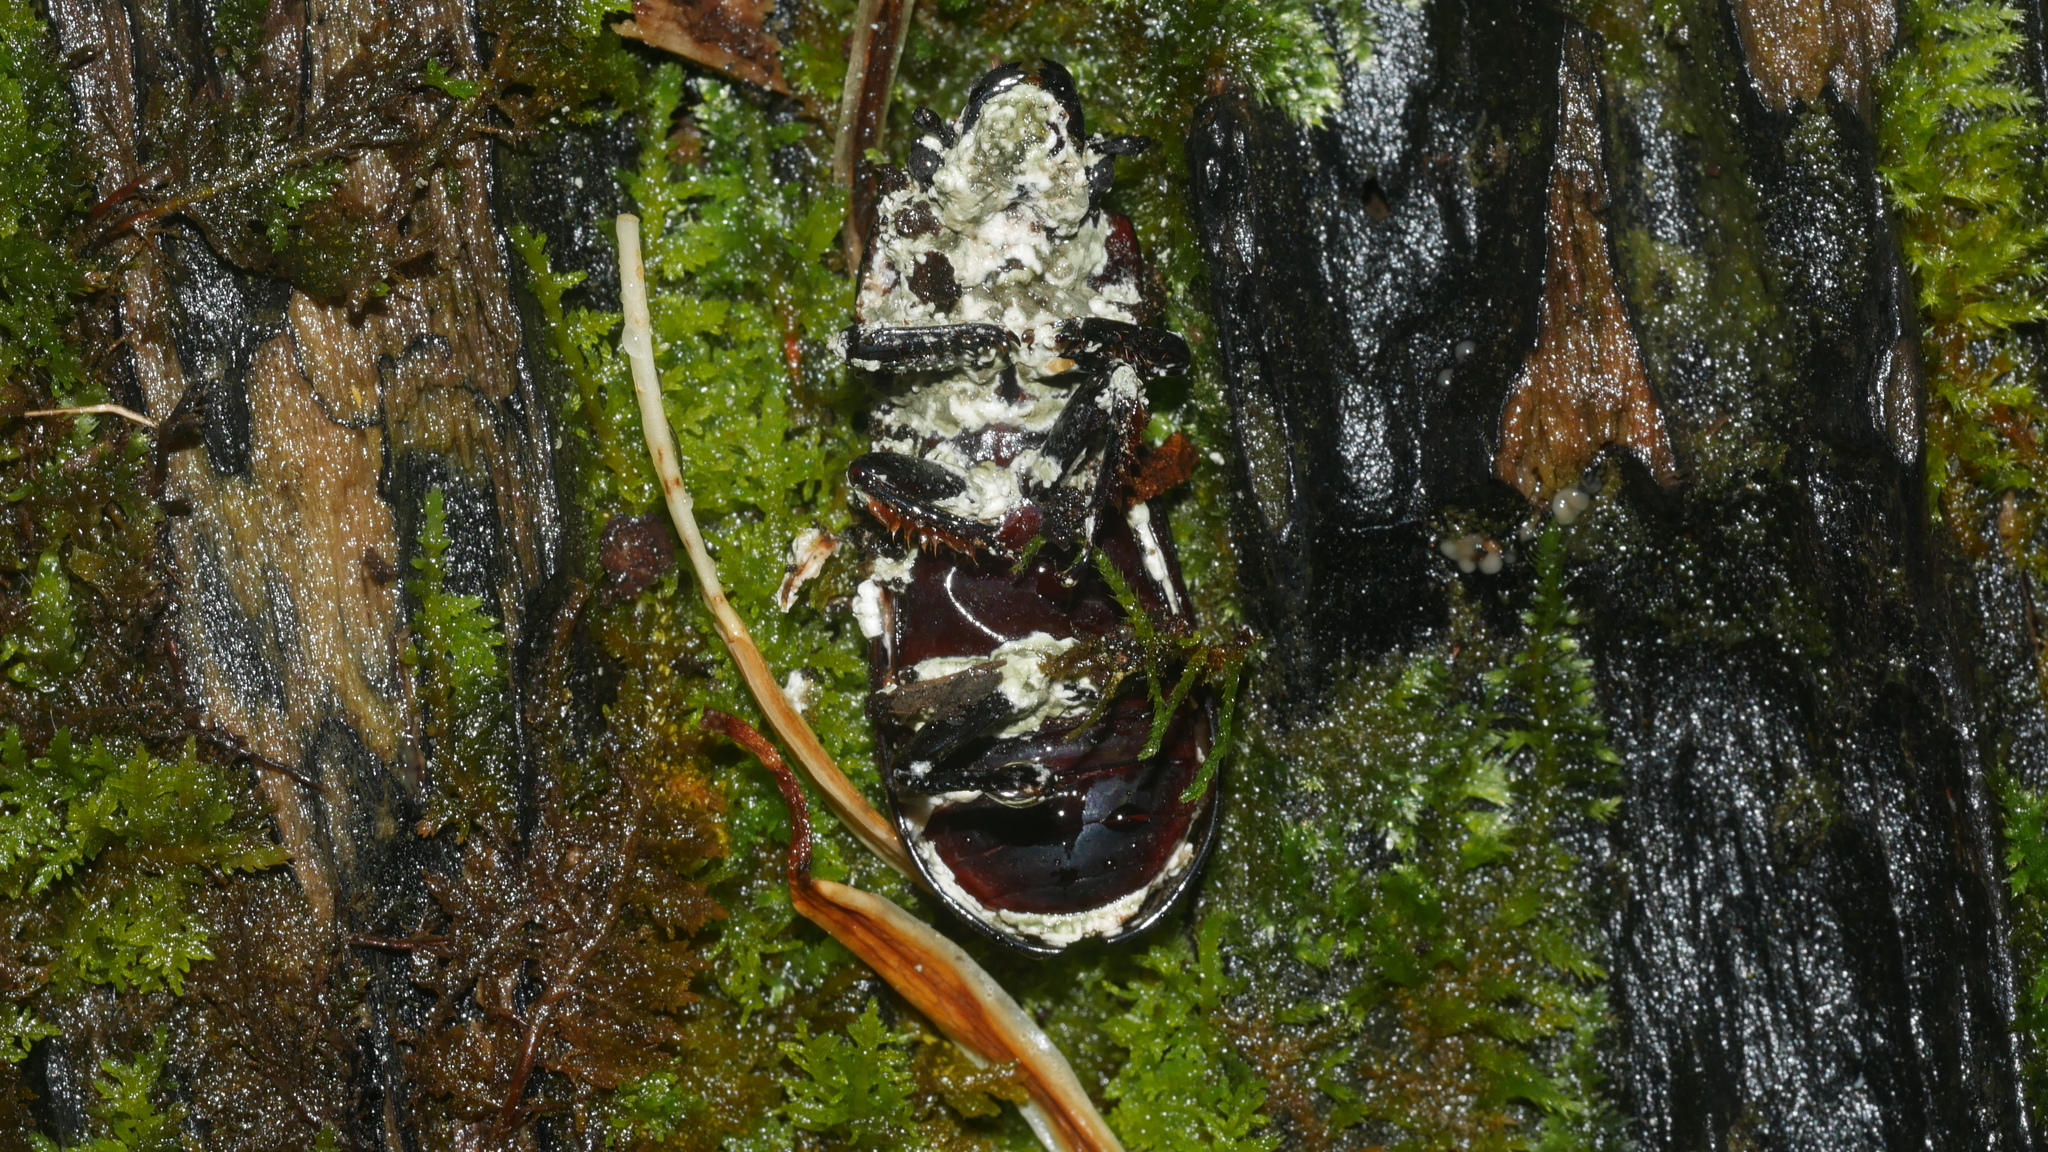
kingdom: Fungi
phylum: Ascomycota
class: Sordariomycetes
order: Hypocreales
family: Cordycipitaceae
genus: Beauveria
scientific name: Beauveria bassiana
